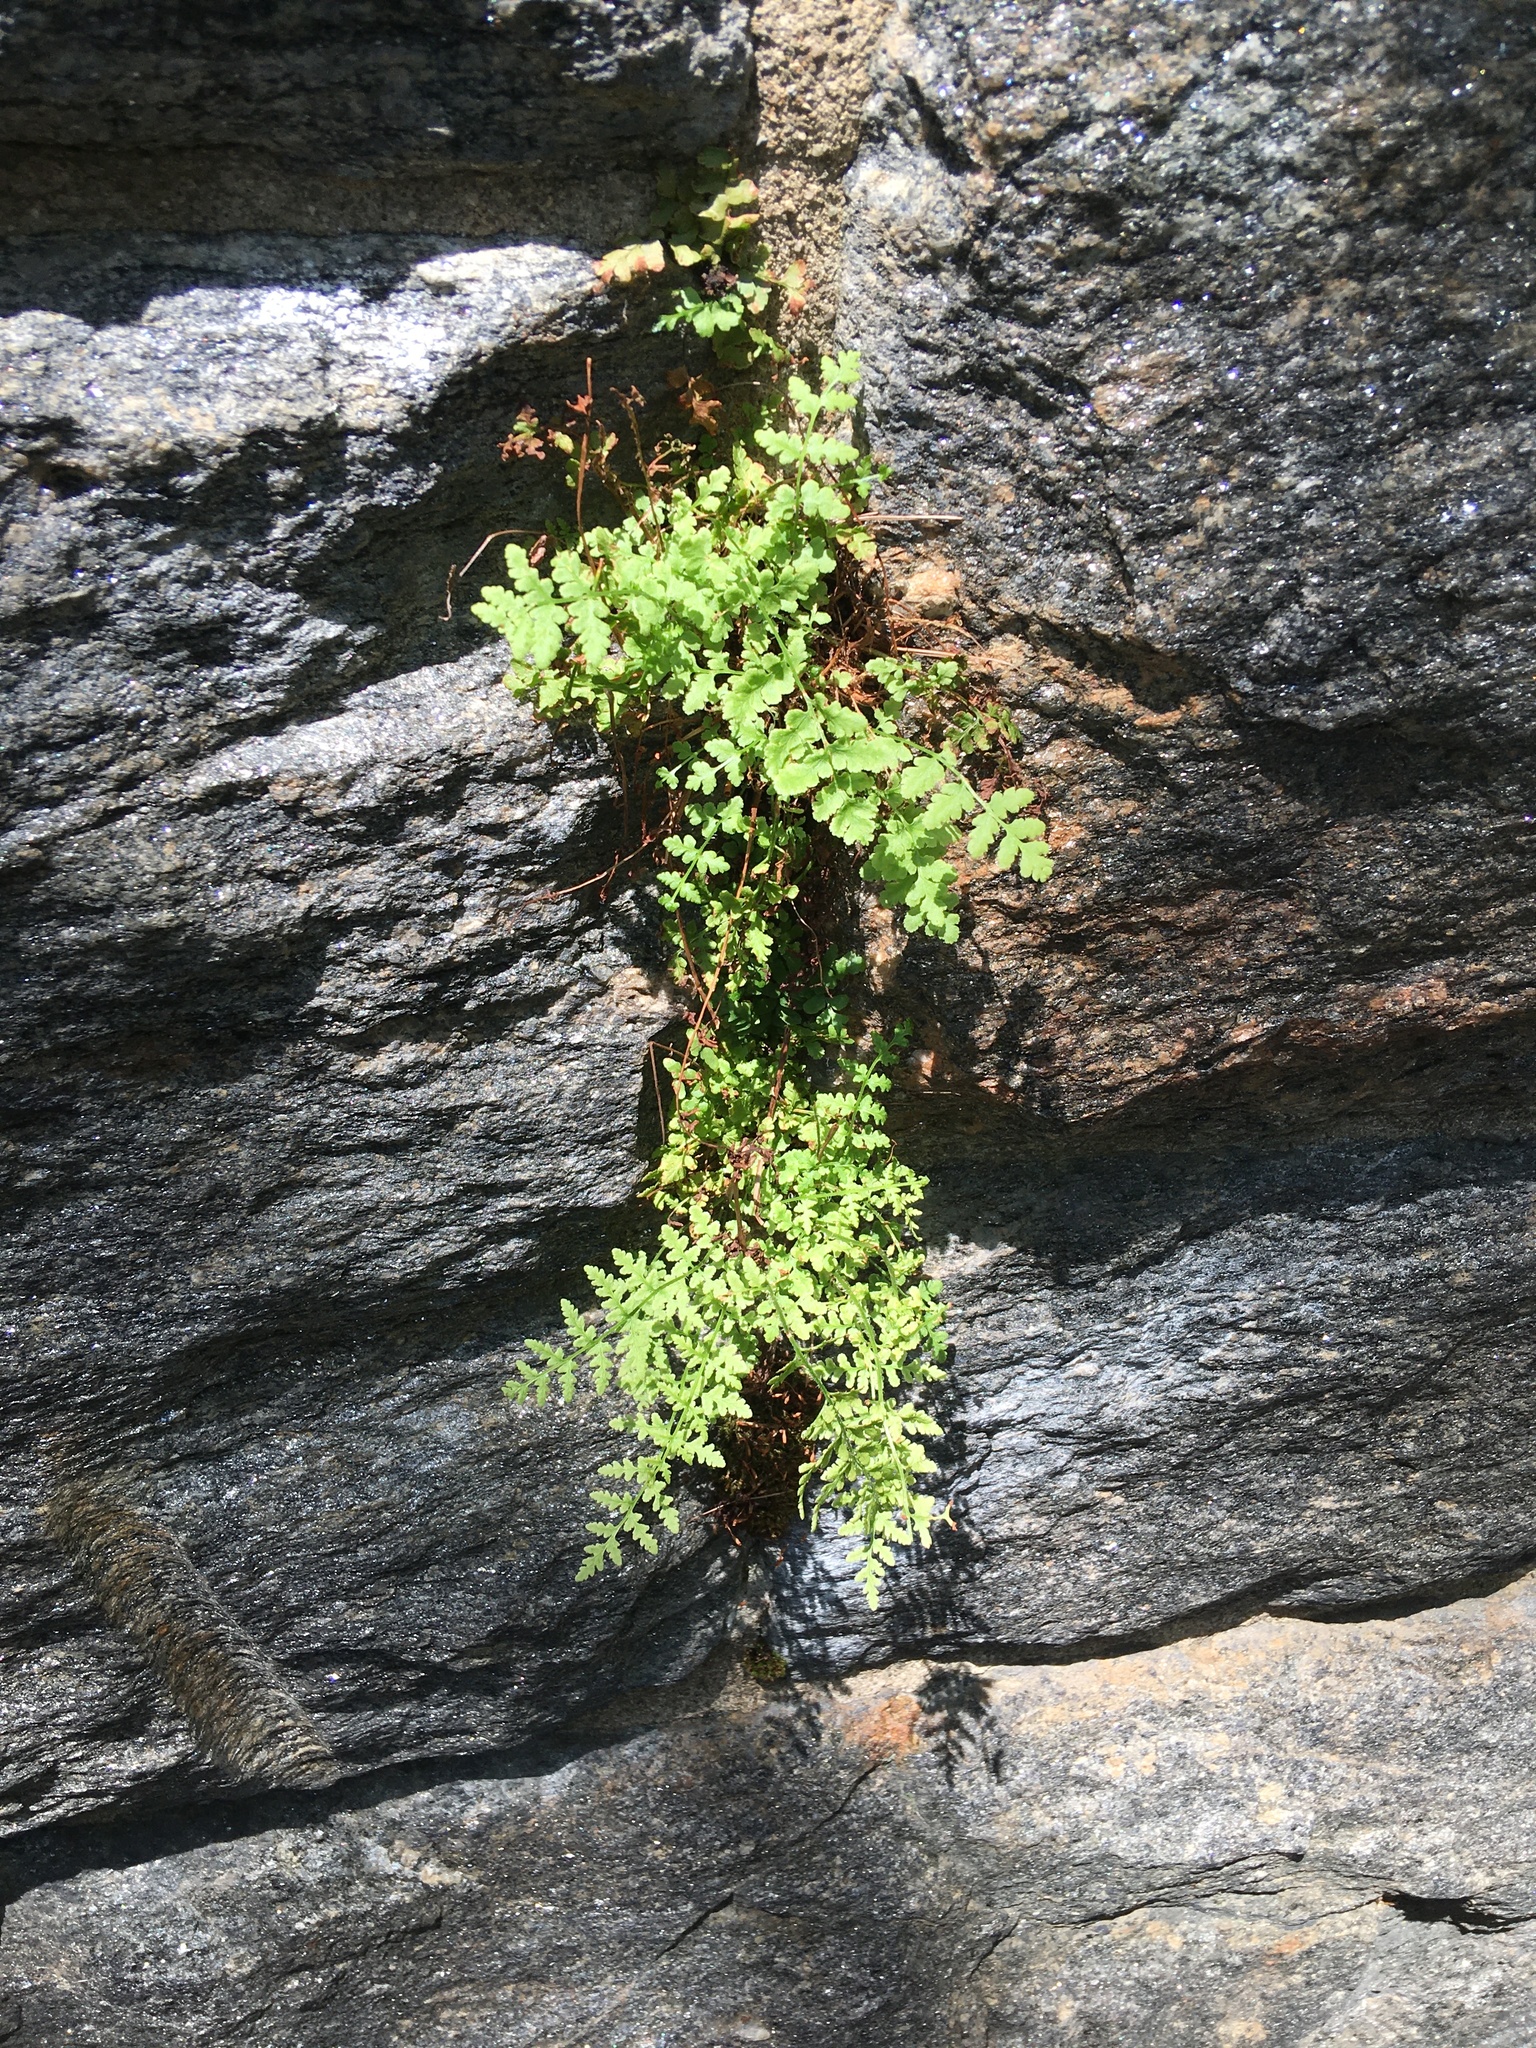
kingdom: Plantae
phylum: Tracheophyta
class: Polypodiopsida
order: Polypodiales
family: Woodsiaceae
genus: Physematium
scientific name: Physematium obtusum
